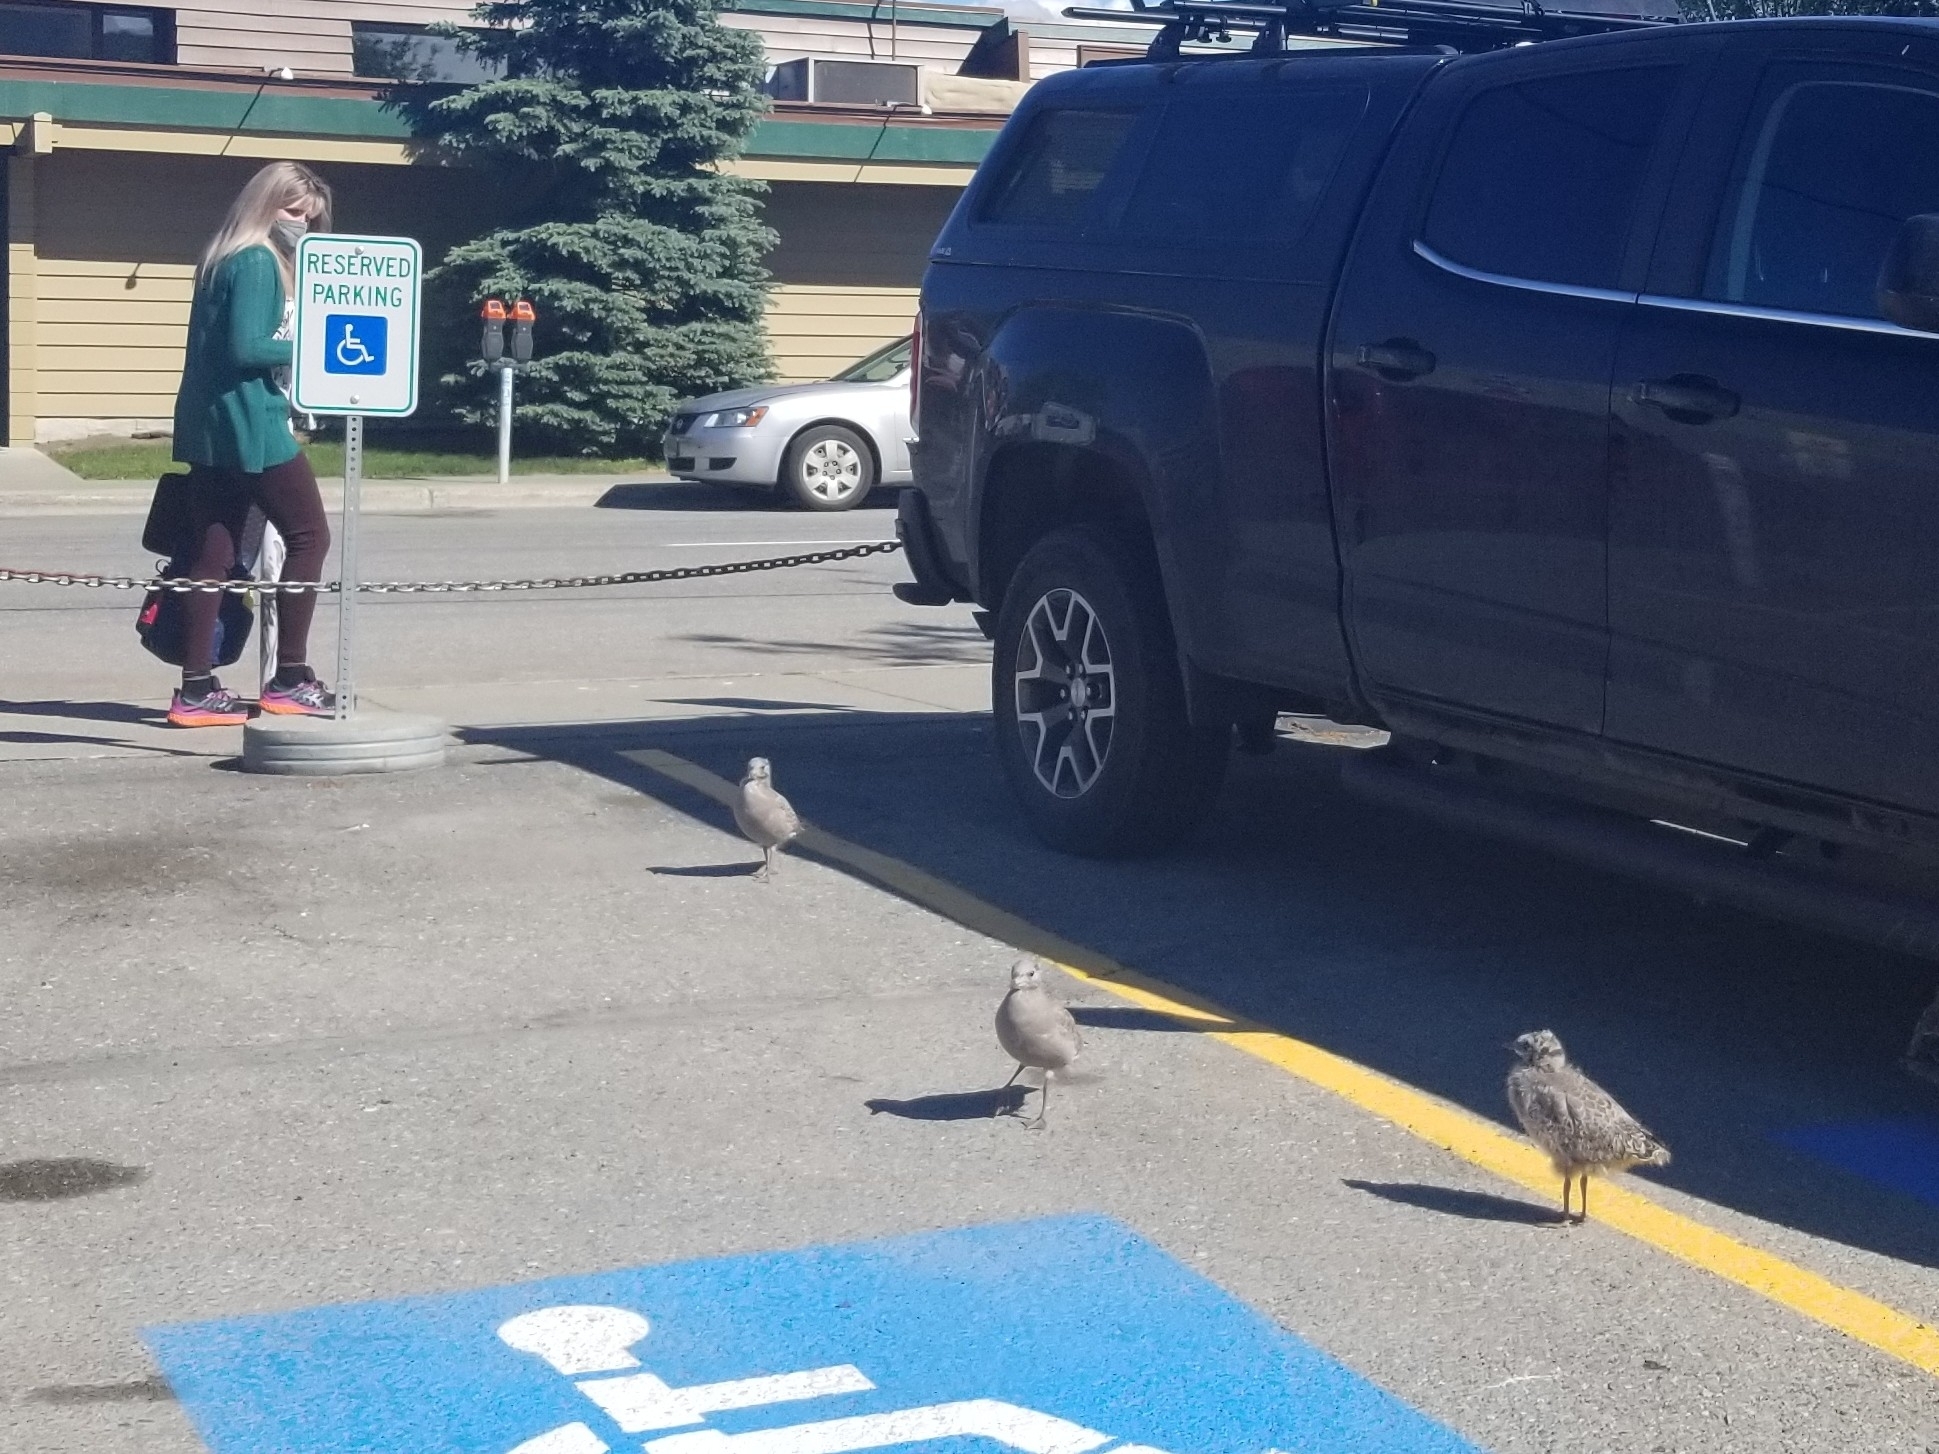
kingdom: Animalia
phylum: Chordata
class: Aves
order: Charadriiformes
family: Laridae
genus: Larus
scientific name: Larus brachyrhynchus
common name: Short-billed gull
